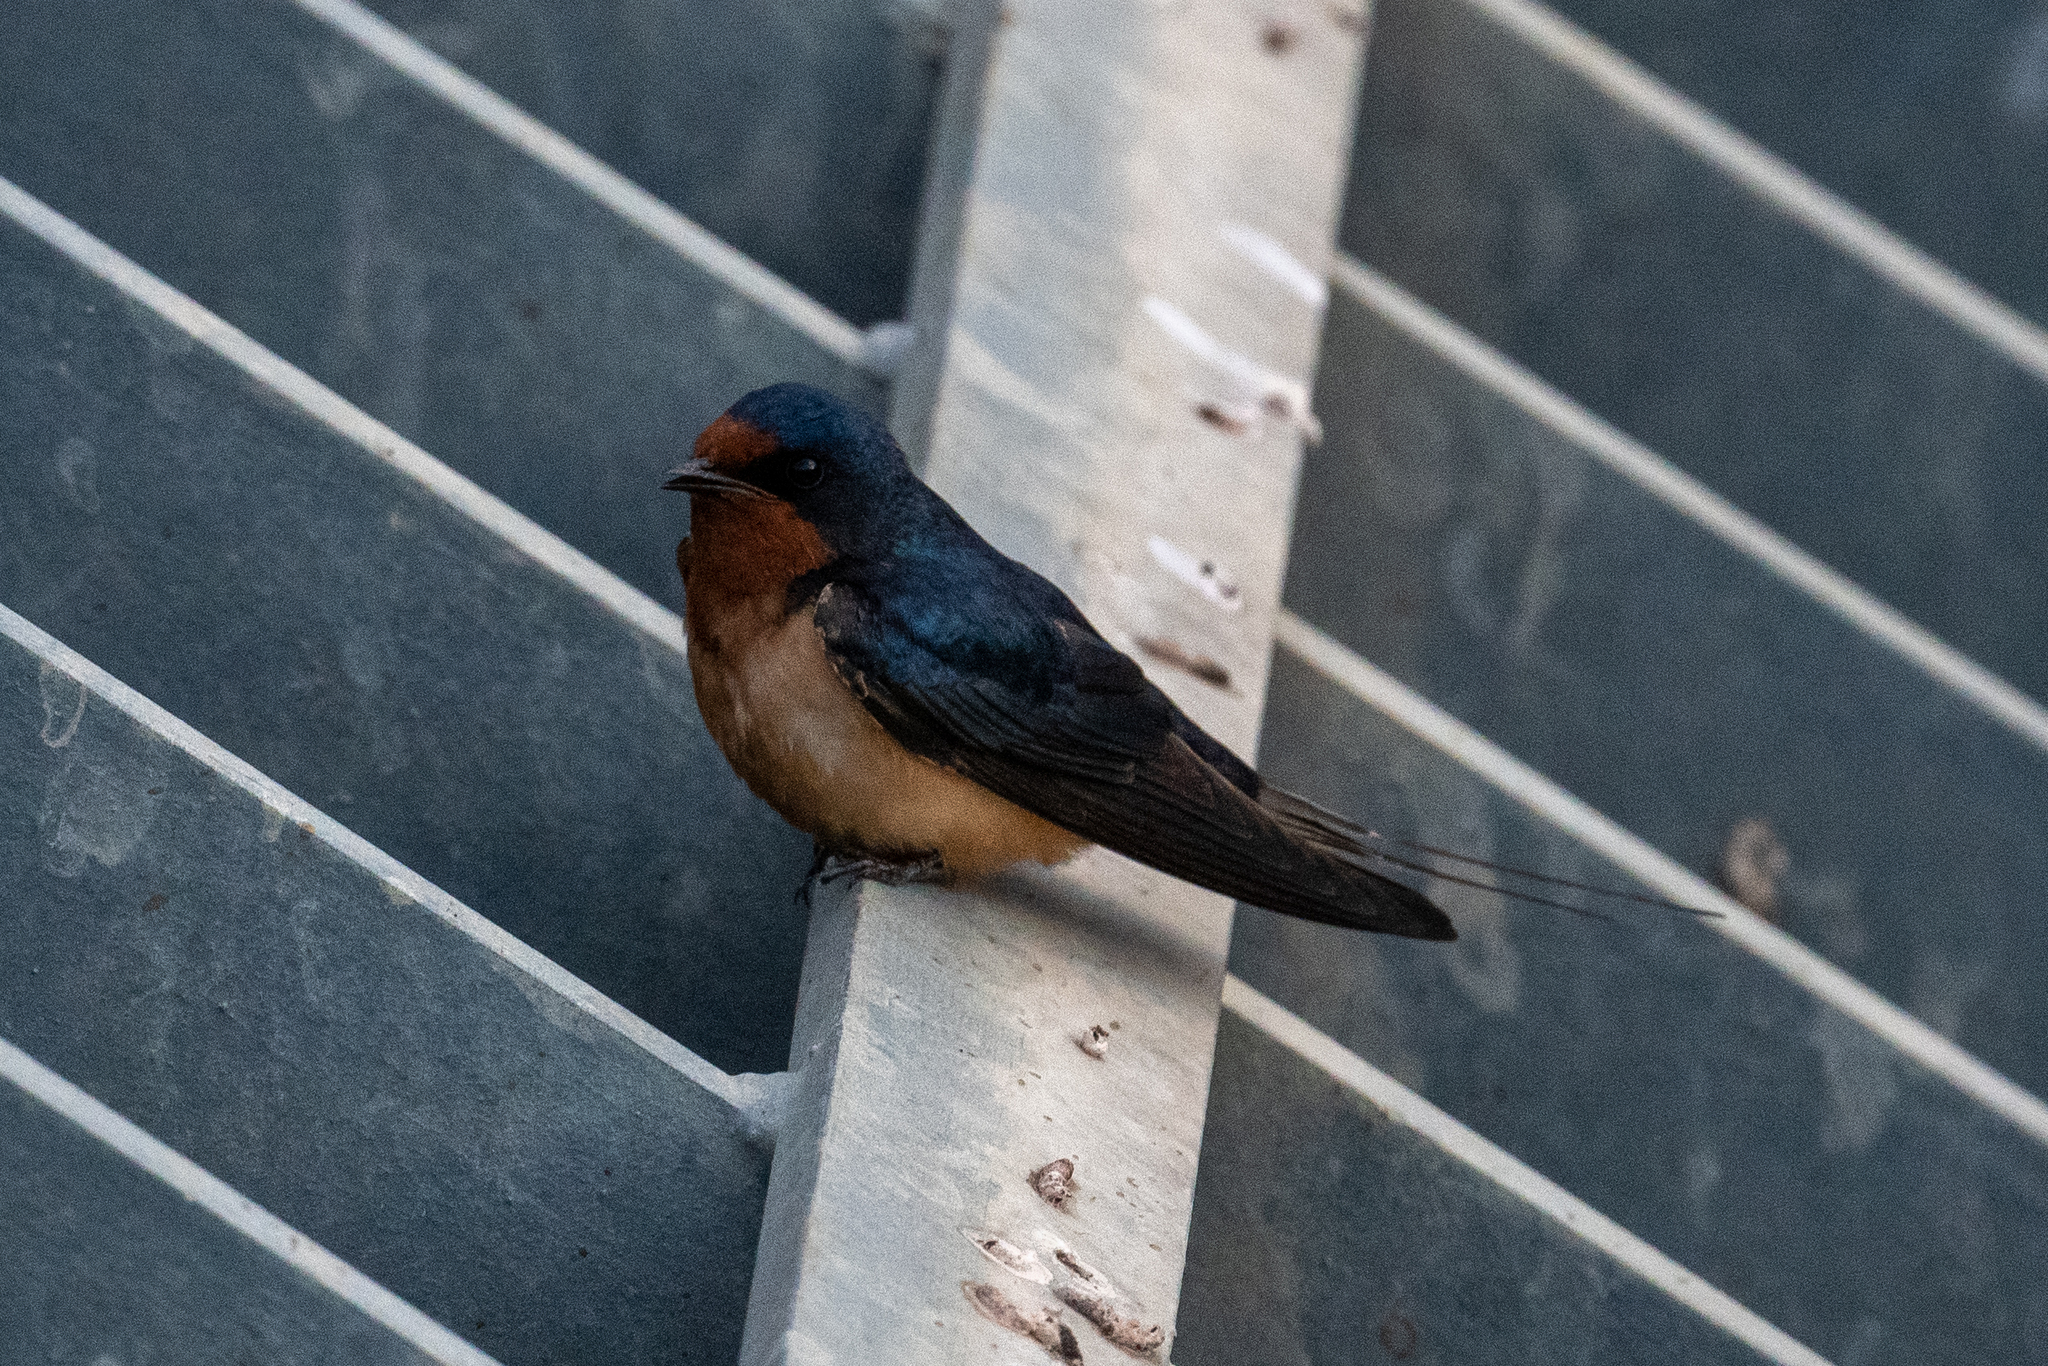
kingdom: Animalia
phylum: Chordata
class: Aves
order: Passeriformes
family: Hirundinidae
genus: Hirundo
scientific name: Hirundo rustica
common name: Barn swallow
